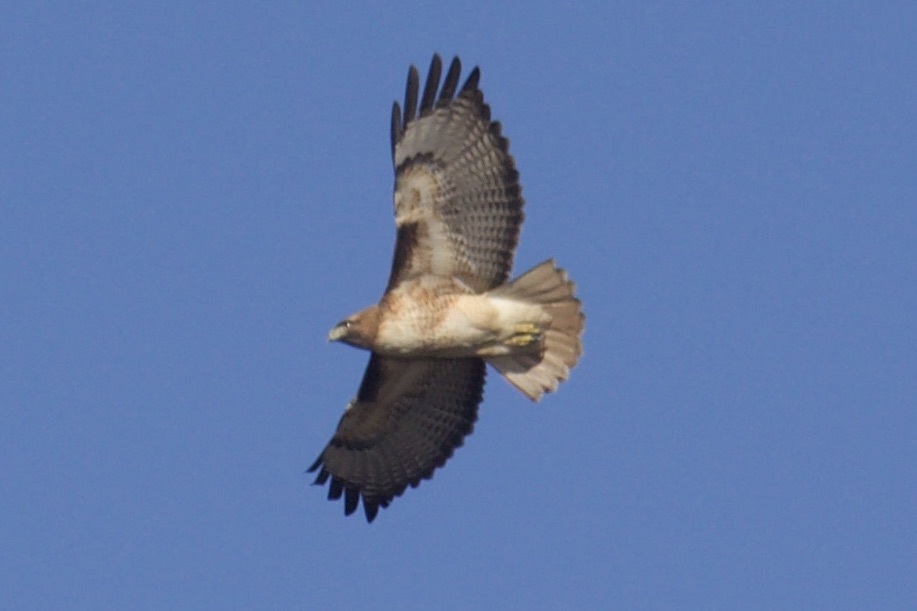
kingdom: Animalia
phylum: Chordata
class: Aves
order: Accipitriformes
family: Accipitridae
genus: Buteo
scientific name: Buteo jamaicensis
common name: Red-tailed hawk
